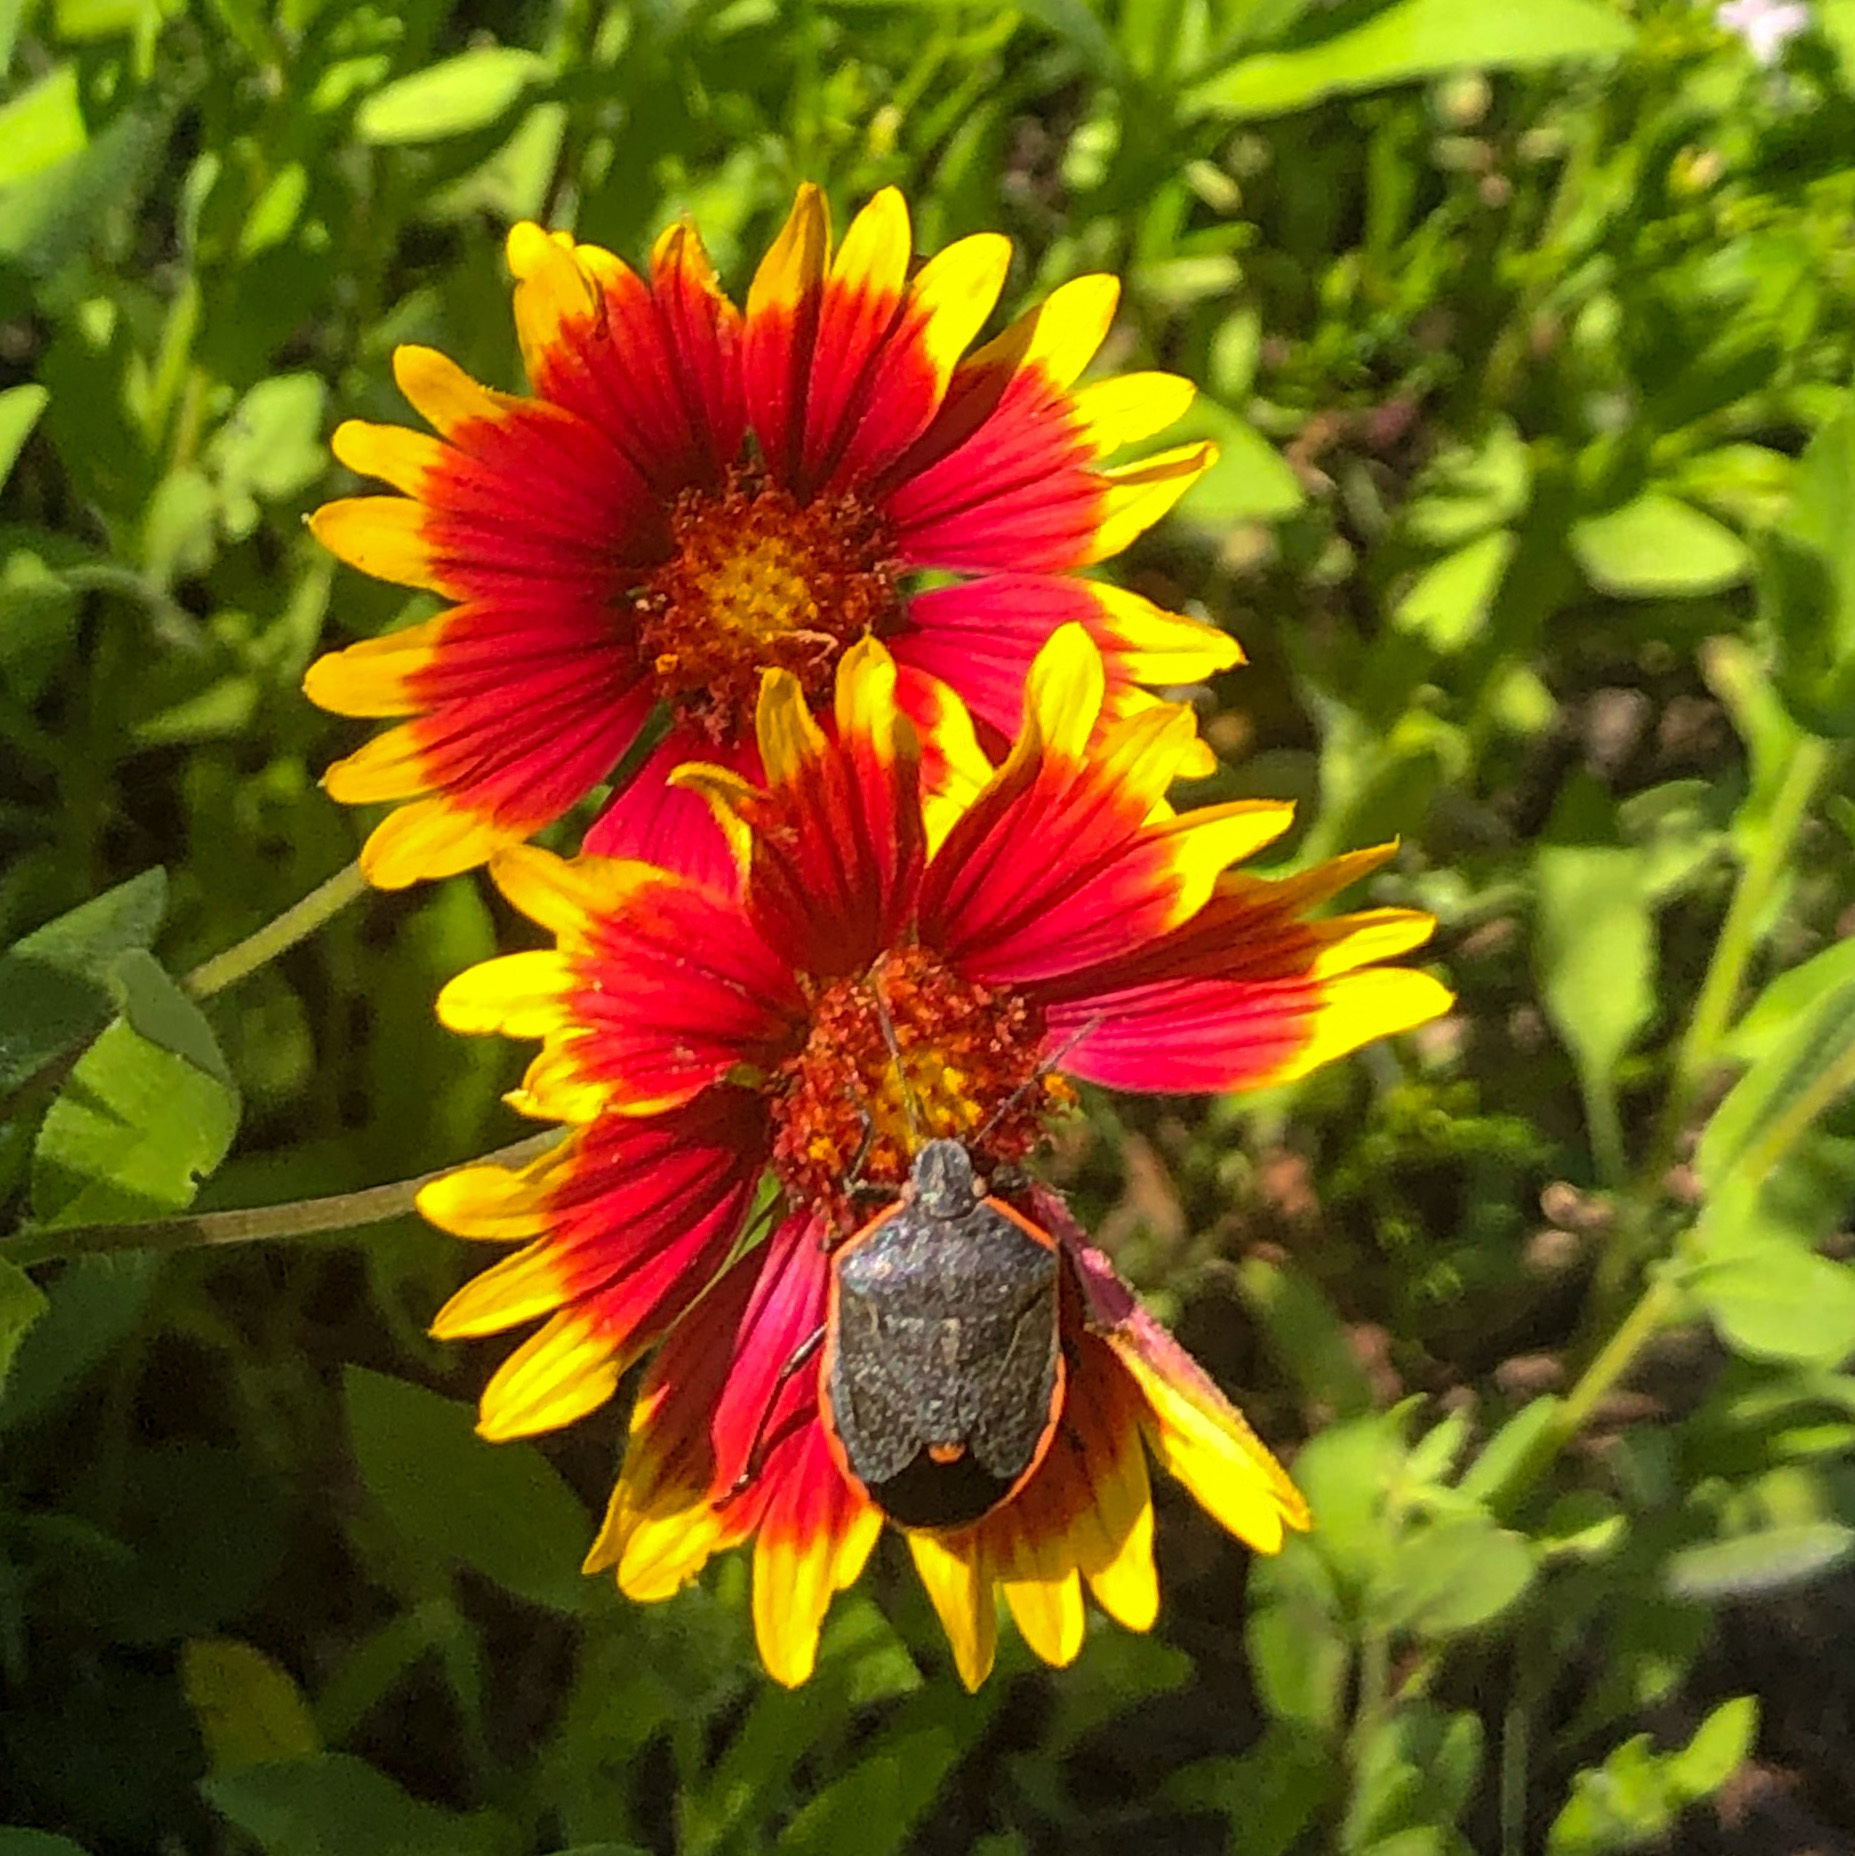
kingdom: Animalia
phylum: Arthropoda
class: Insecta
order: Hemiptera
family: Pentatomidae
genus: Chlorochroa
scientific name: Chlorochroa ligata
